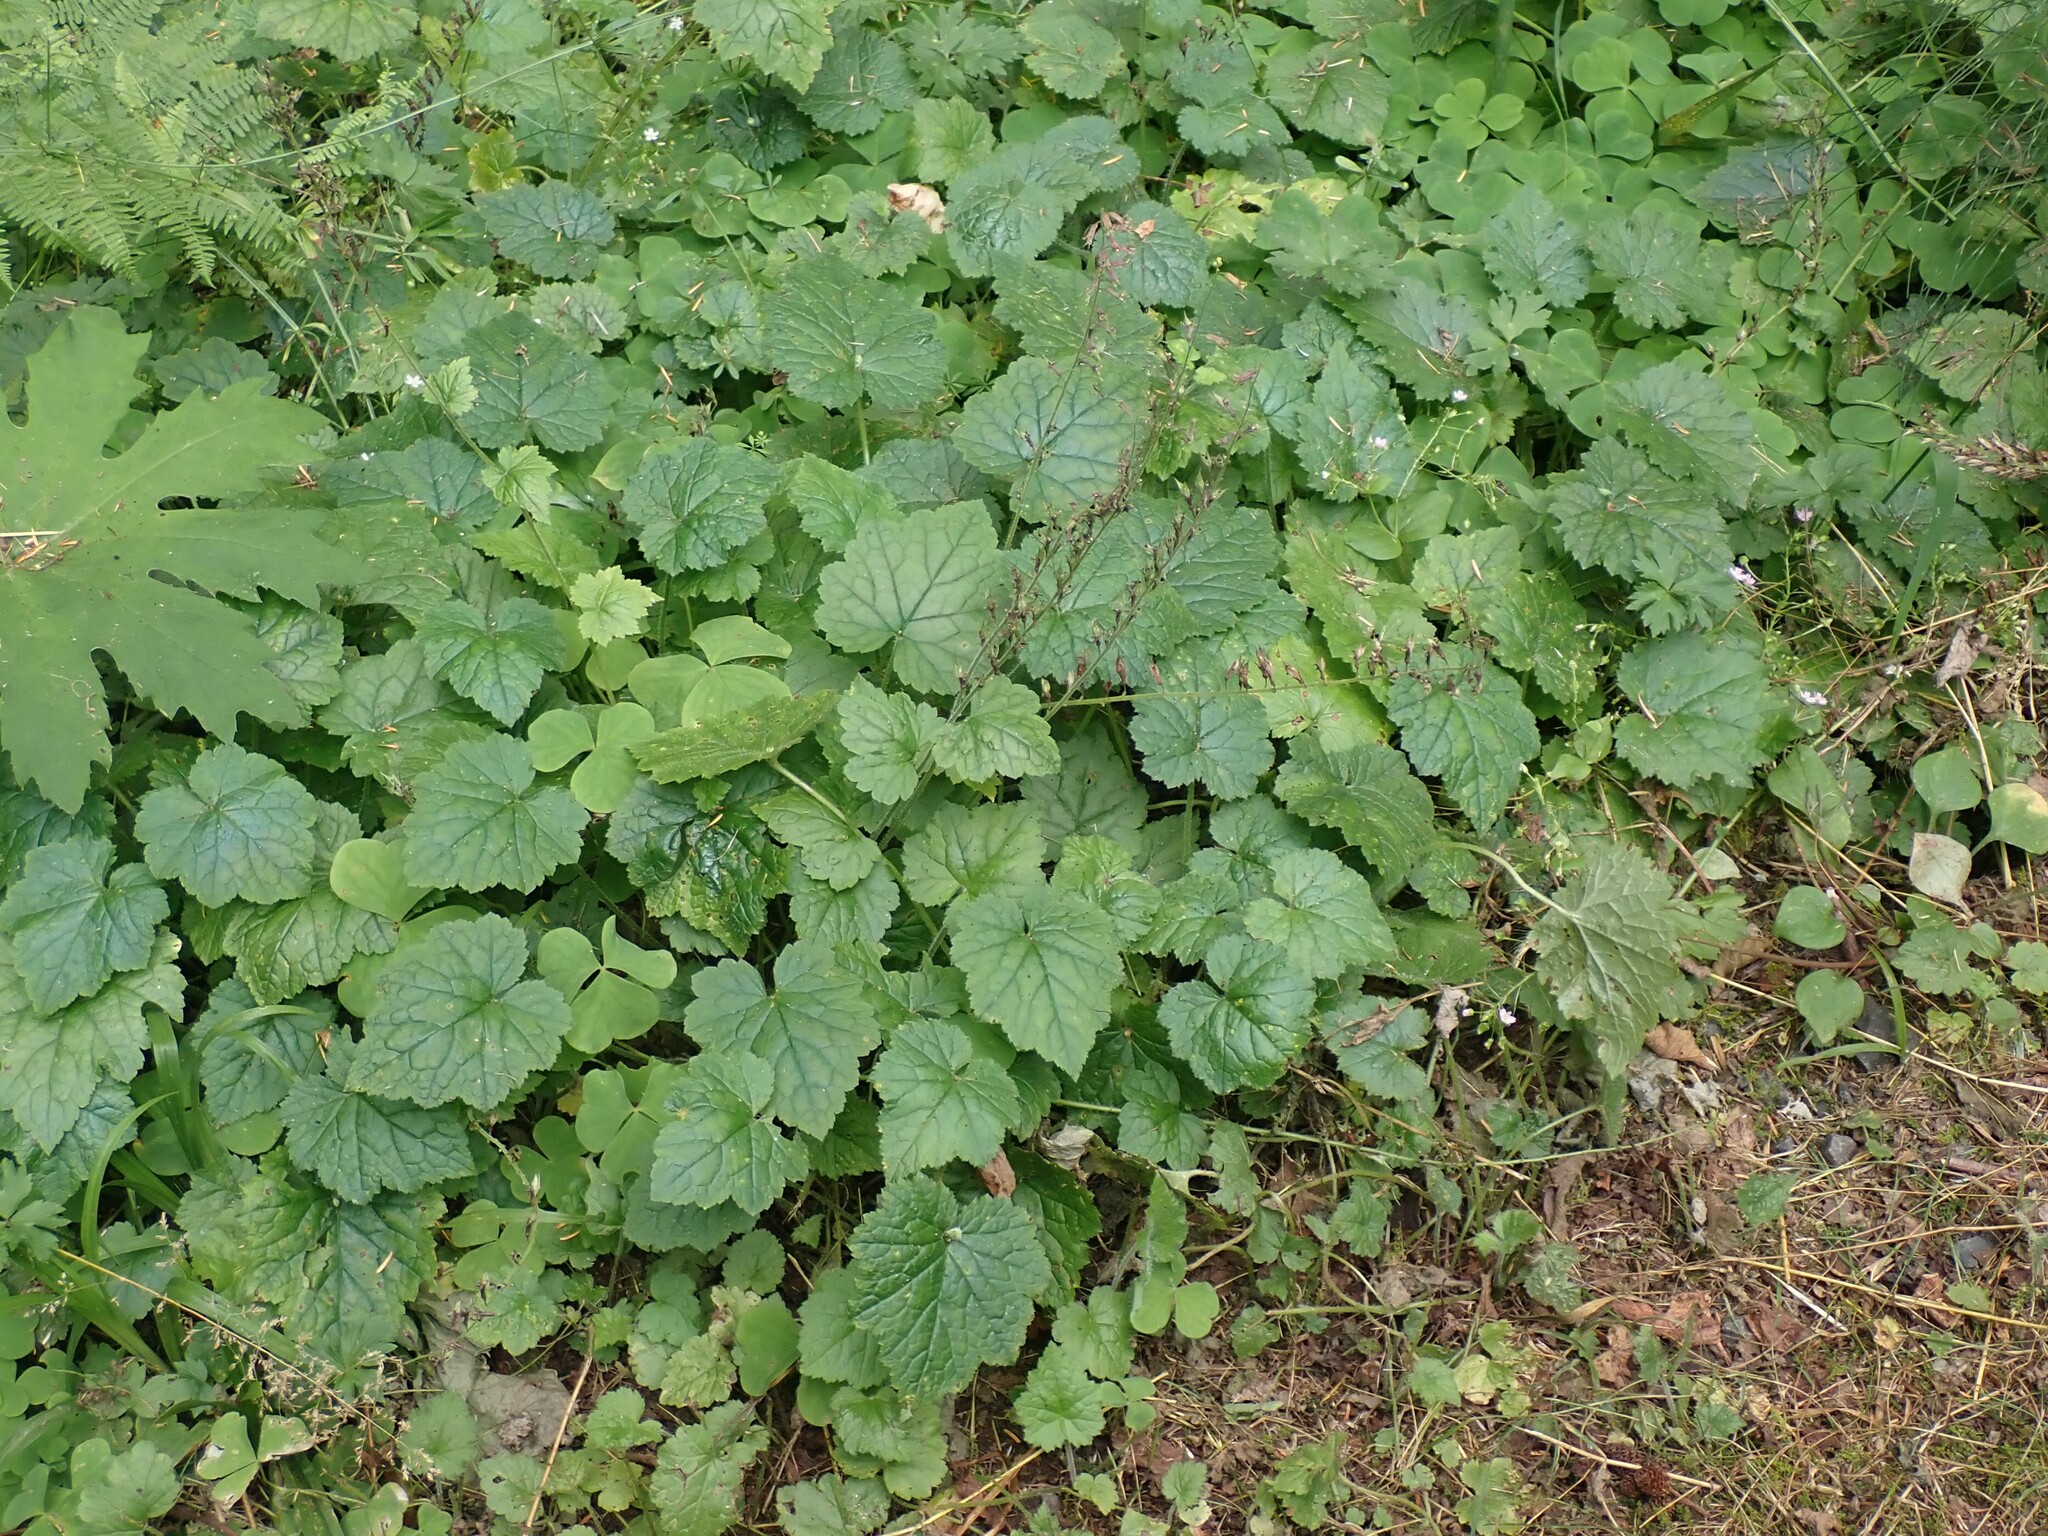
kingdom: Plantae
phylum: Tracheophyta
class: Magnoliopsida
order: Saxifragales
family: Saxifragaceae
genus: Tolmiea
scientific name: Tolmiea menziesii
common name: Pick-a-back-plant
